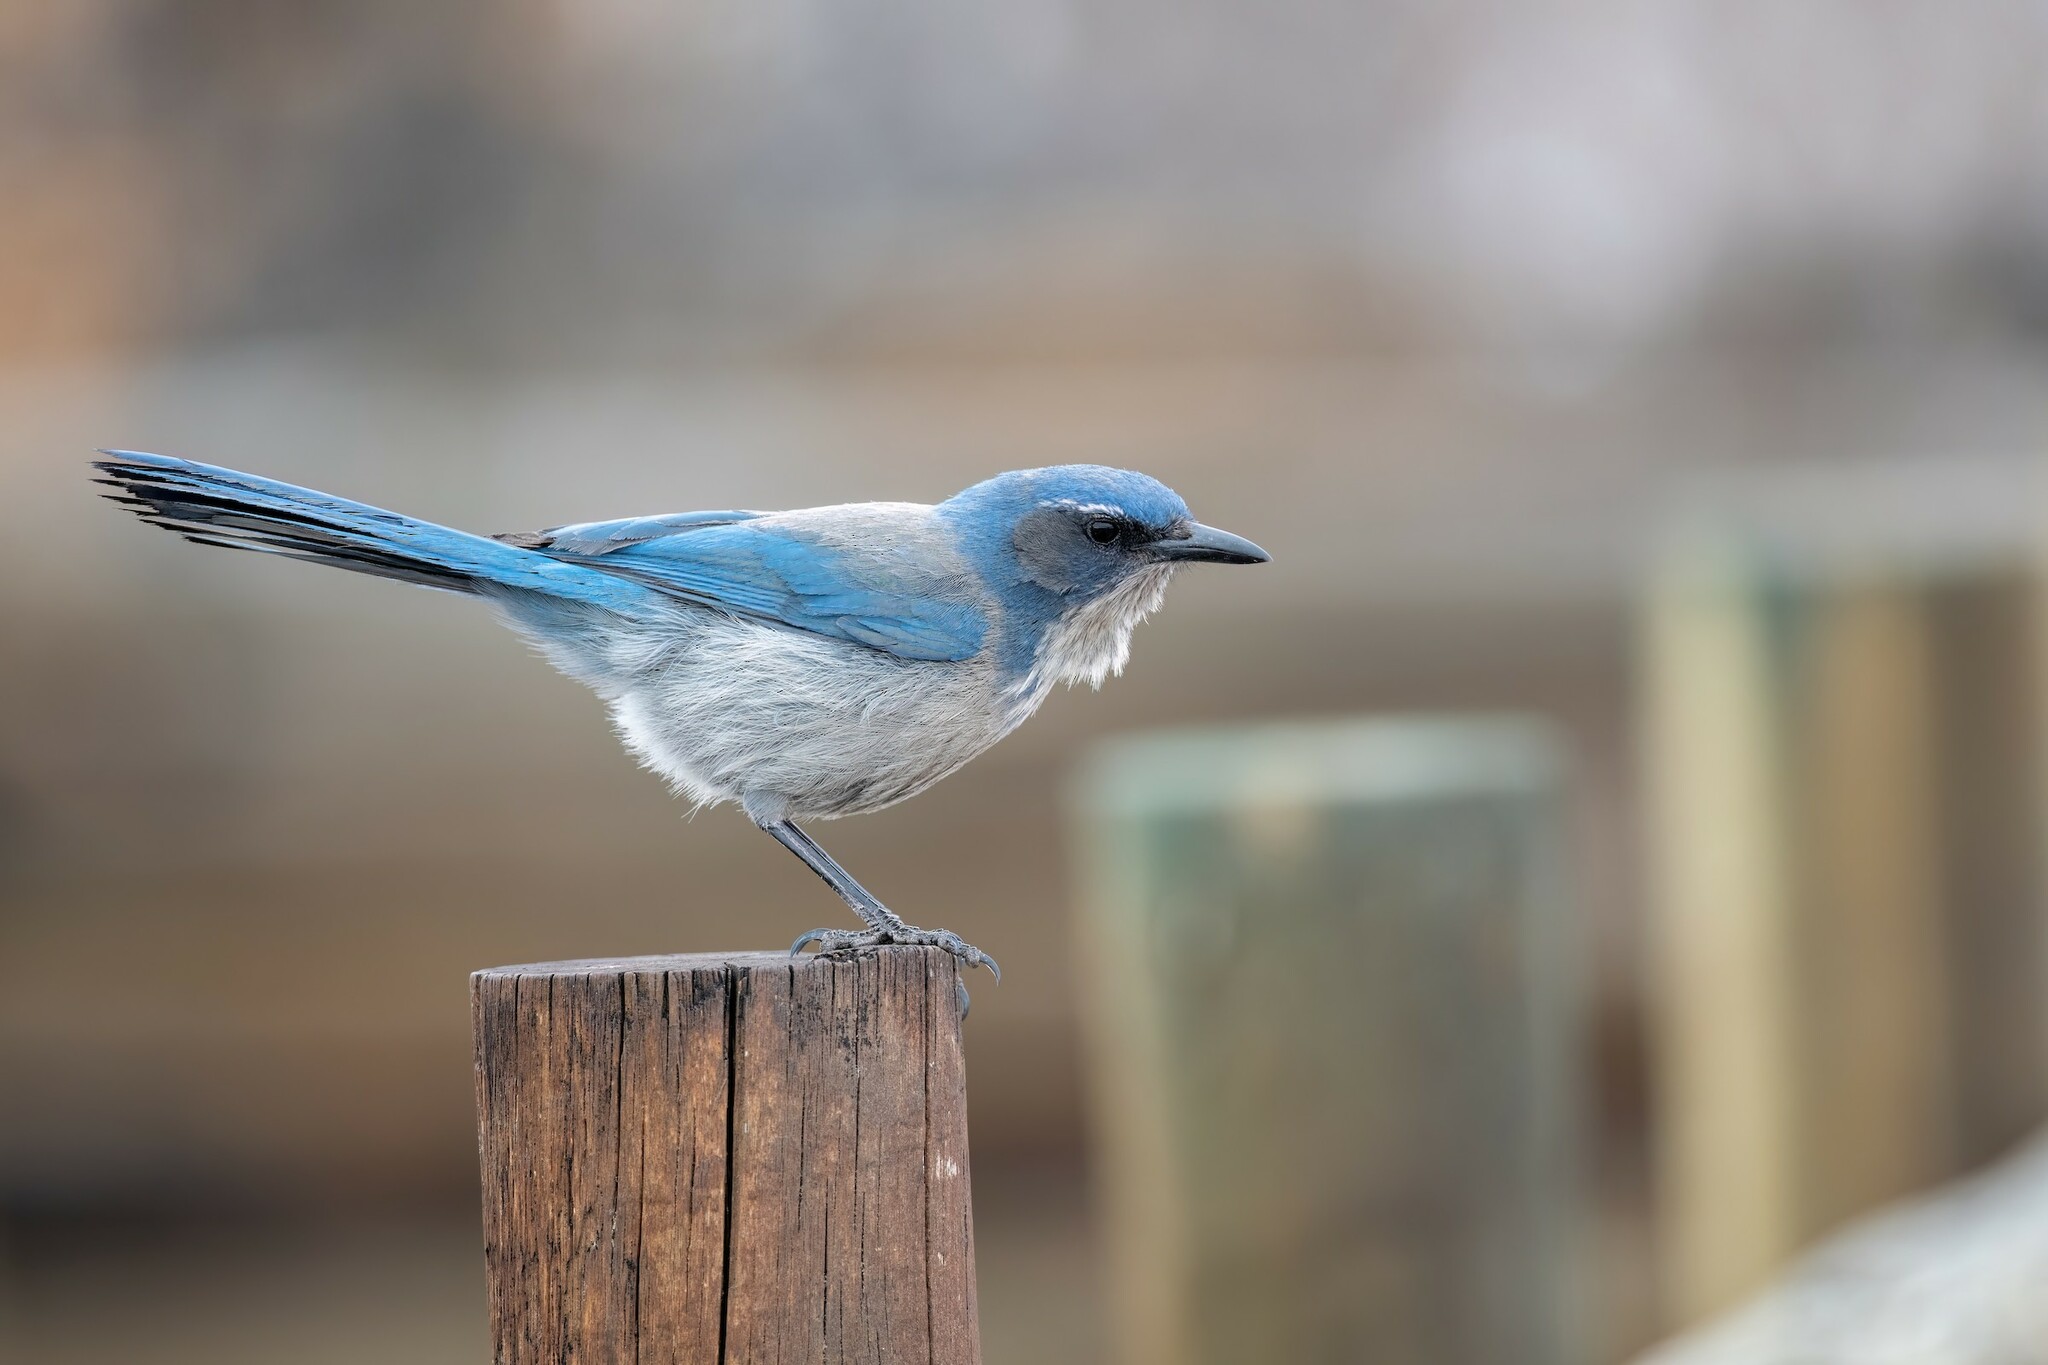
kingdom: Animalia
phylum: Chordata
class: Aves
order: Passeriformes
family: Corvidae
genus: Aphelocoma
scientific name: Aphelocoma woodhouseii
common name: Woodhouse's scrub-jay
